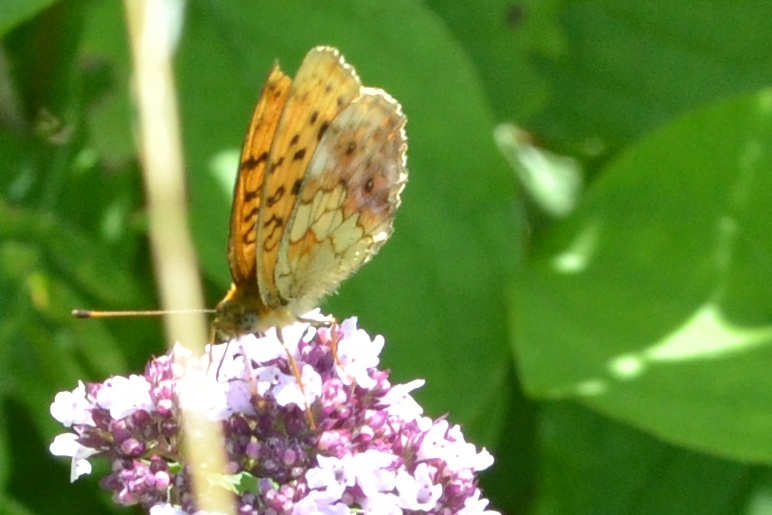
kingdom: Animalia
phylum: Arthropoda
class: Insecta
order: Lepidoptera
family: Nymphalidae
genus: Brenthis
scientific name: Brenthis daphne
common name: Marbled fritillary
